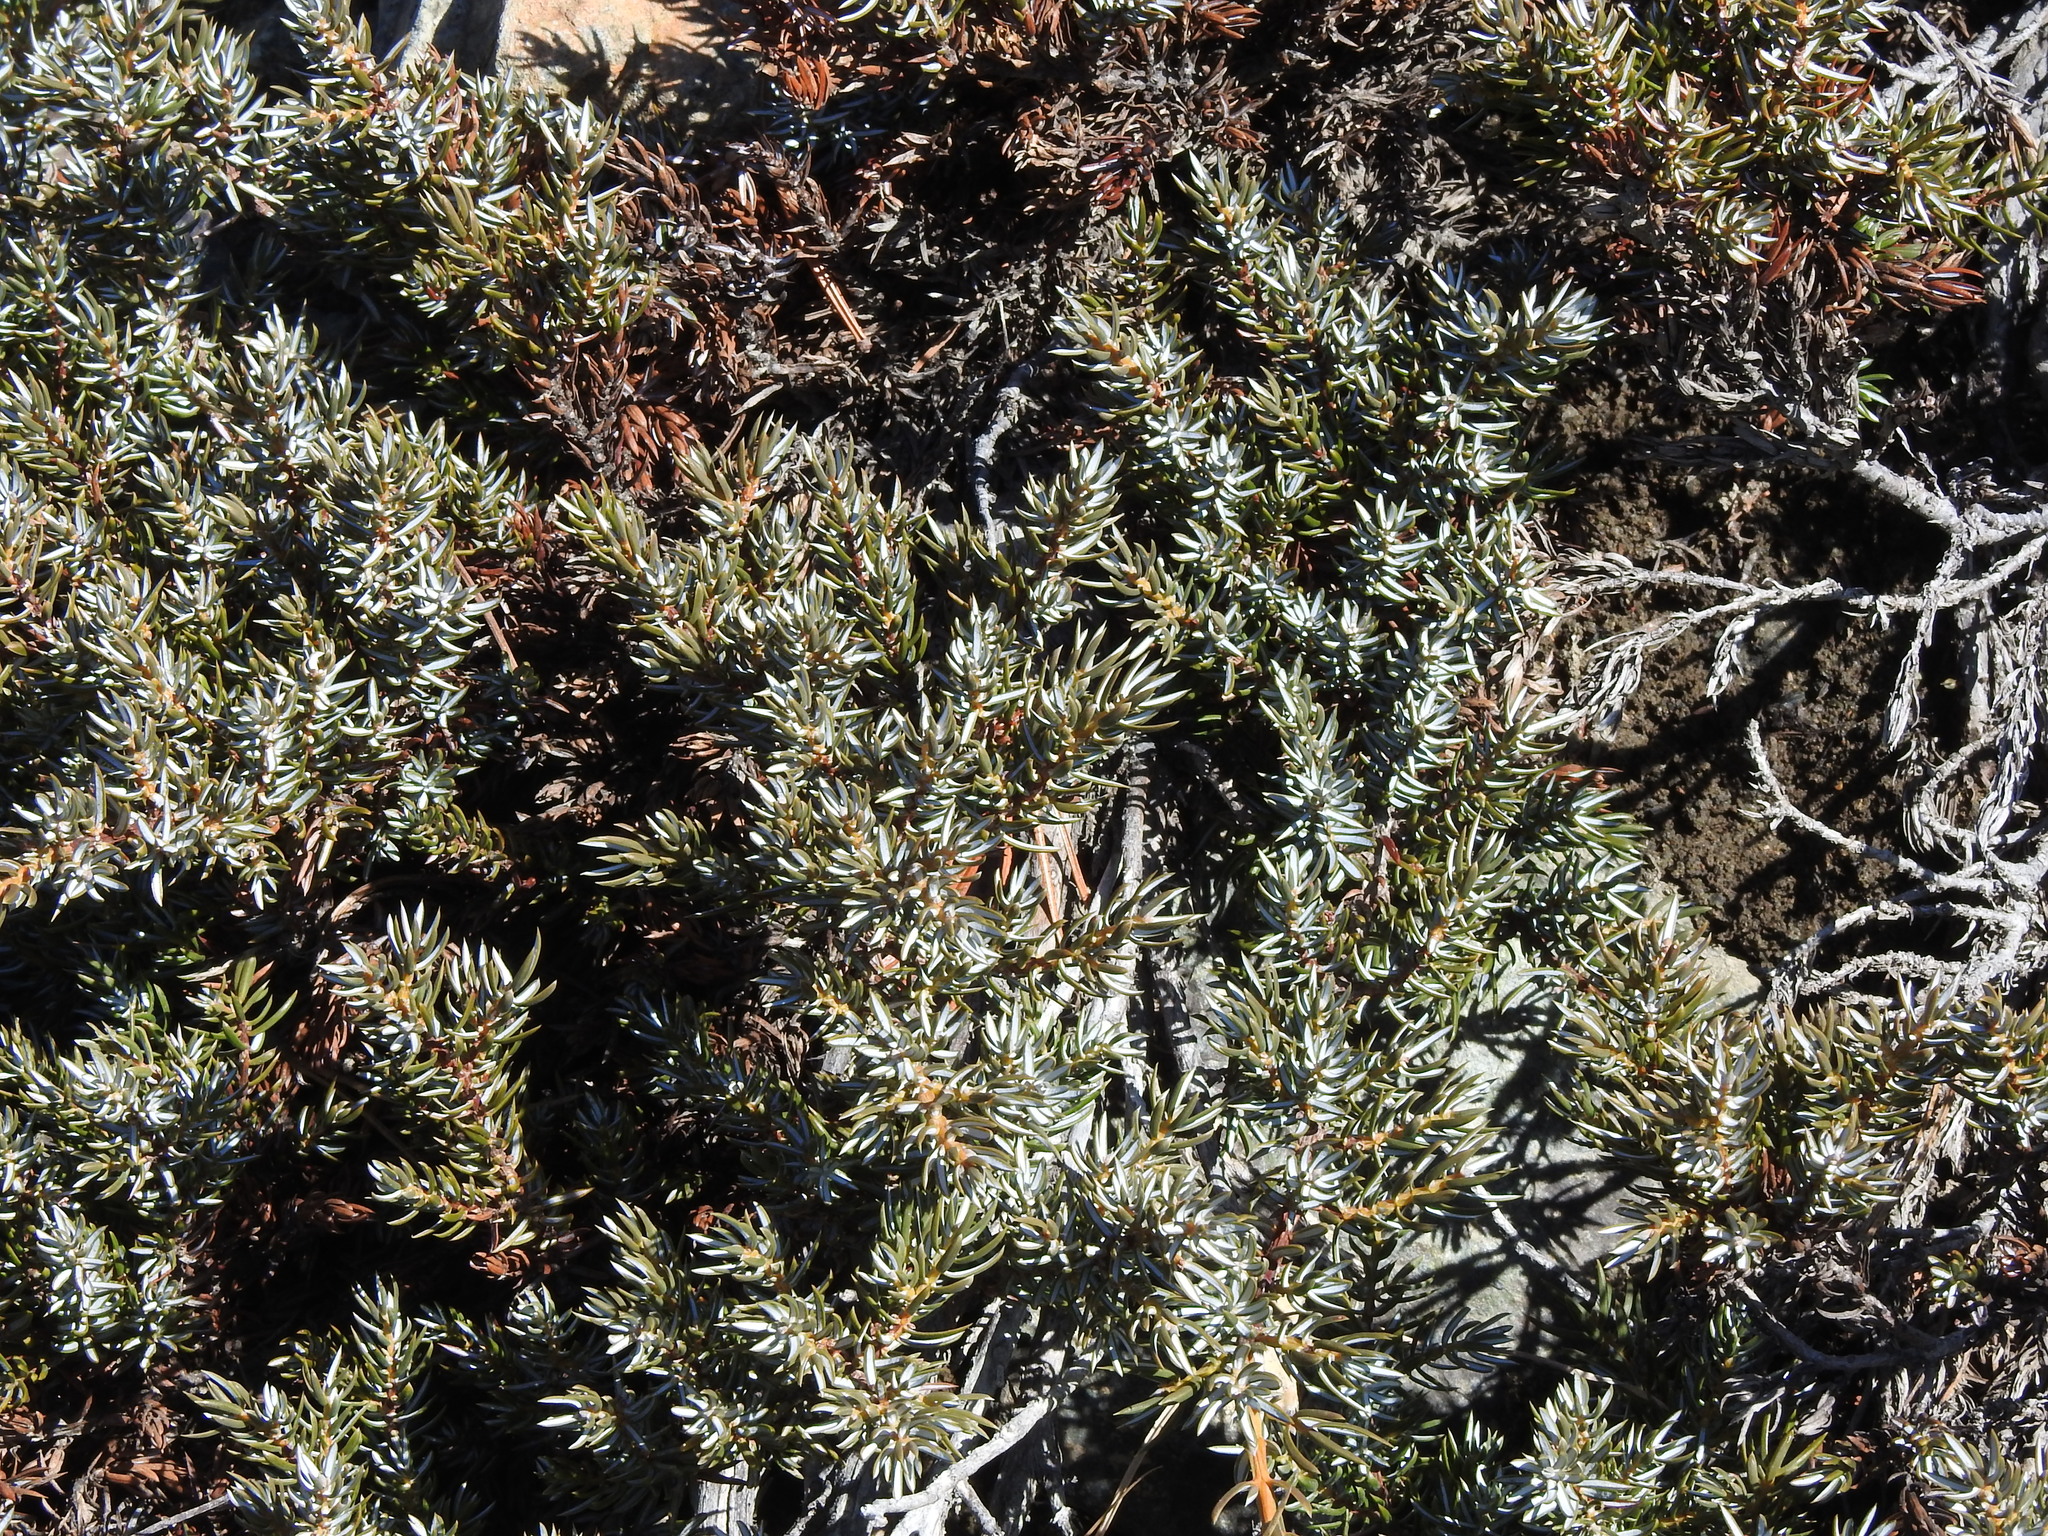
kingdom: Plantae
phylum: Tracheophyta
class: Pinopsida
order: Pinales
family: Cupressaceae
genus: Juniperus
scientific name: Juniperus communis
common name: Common juniper
